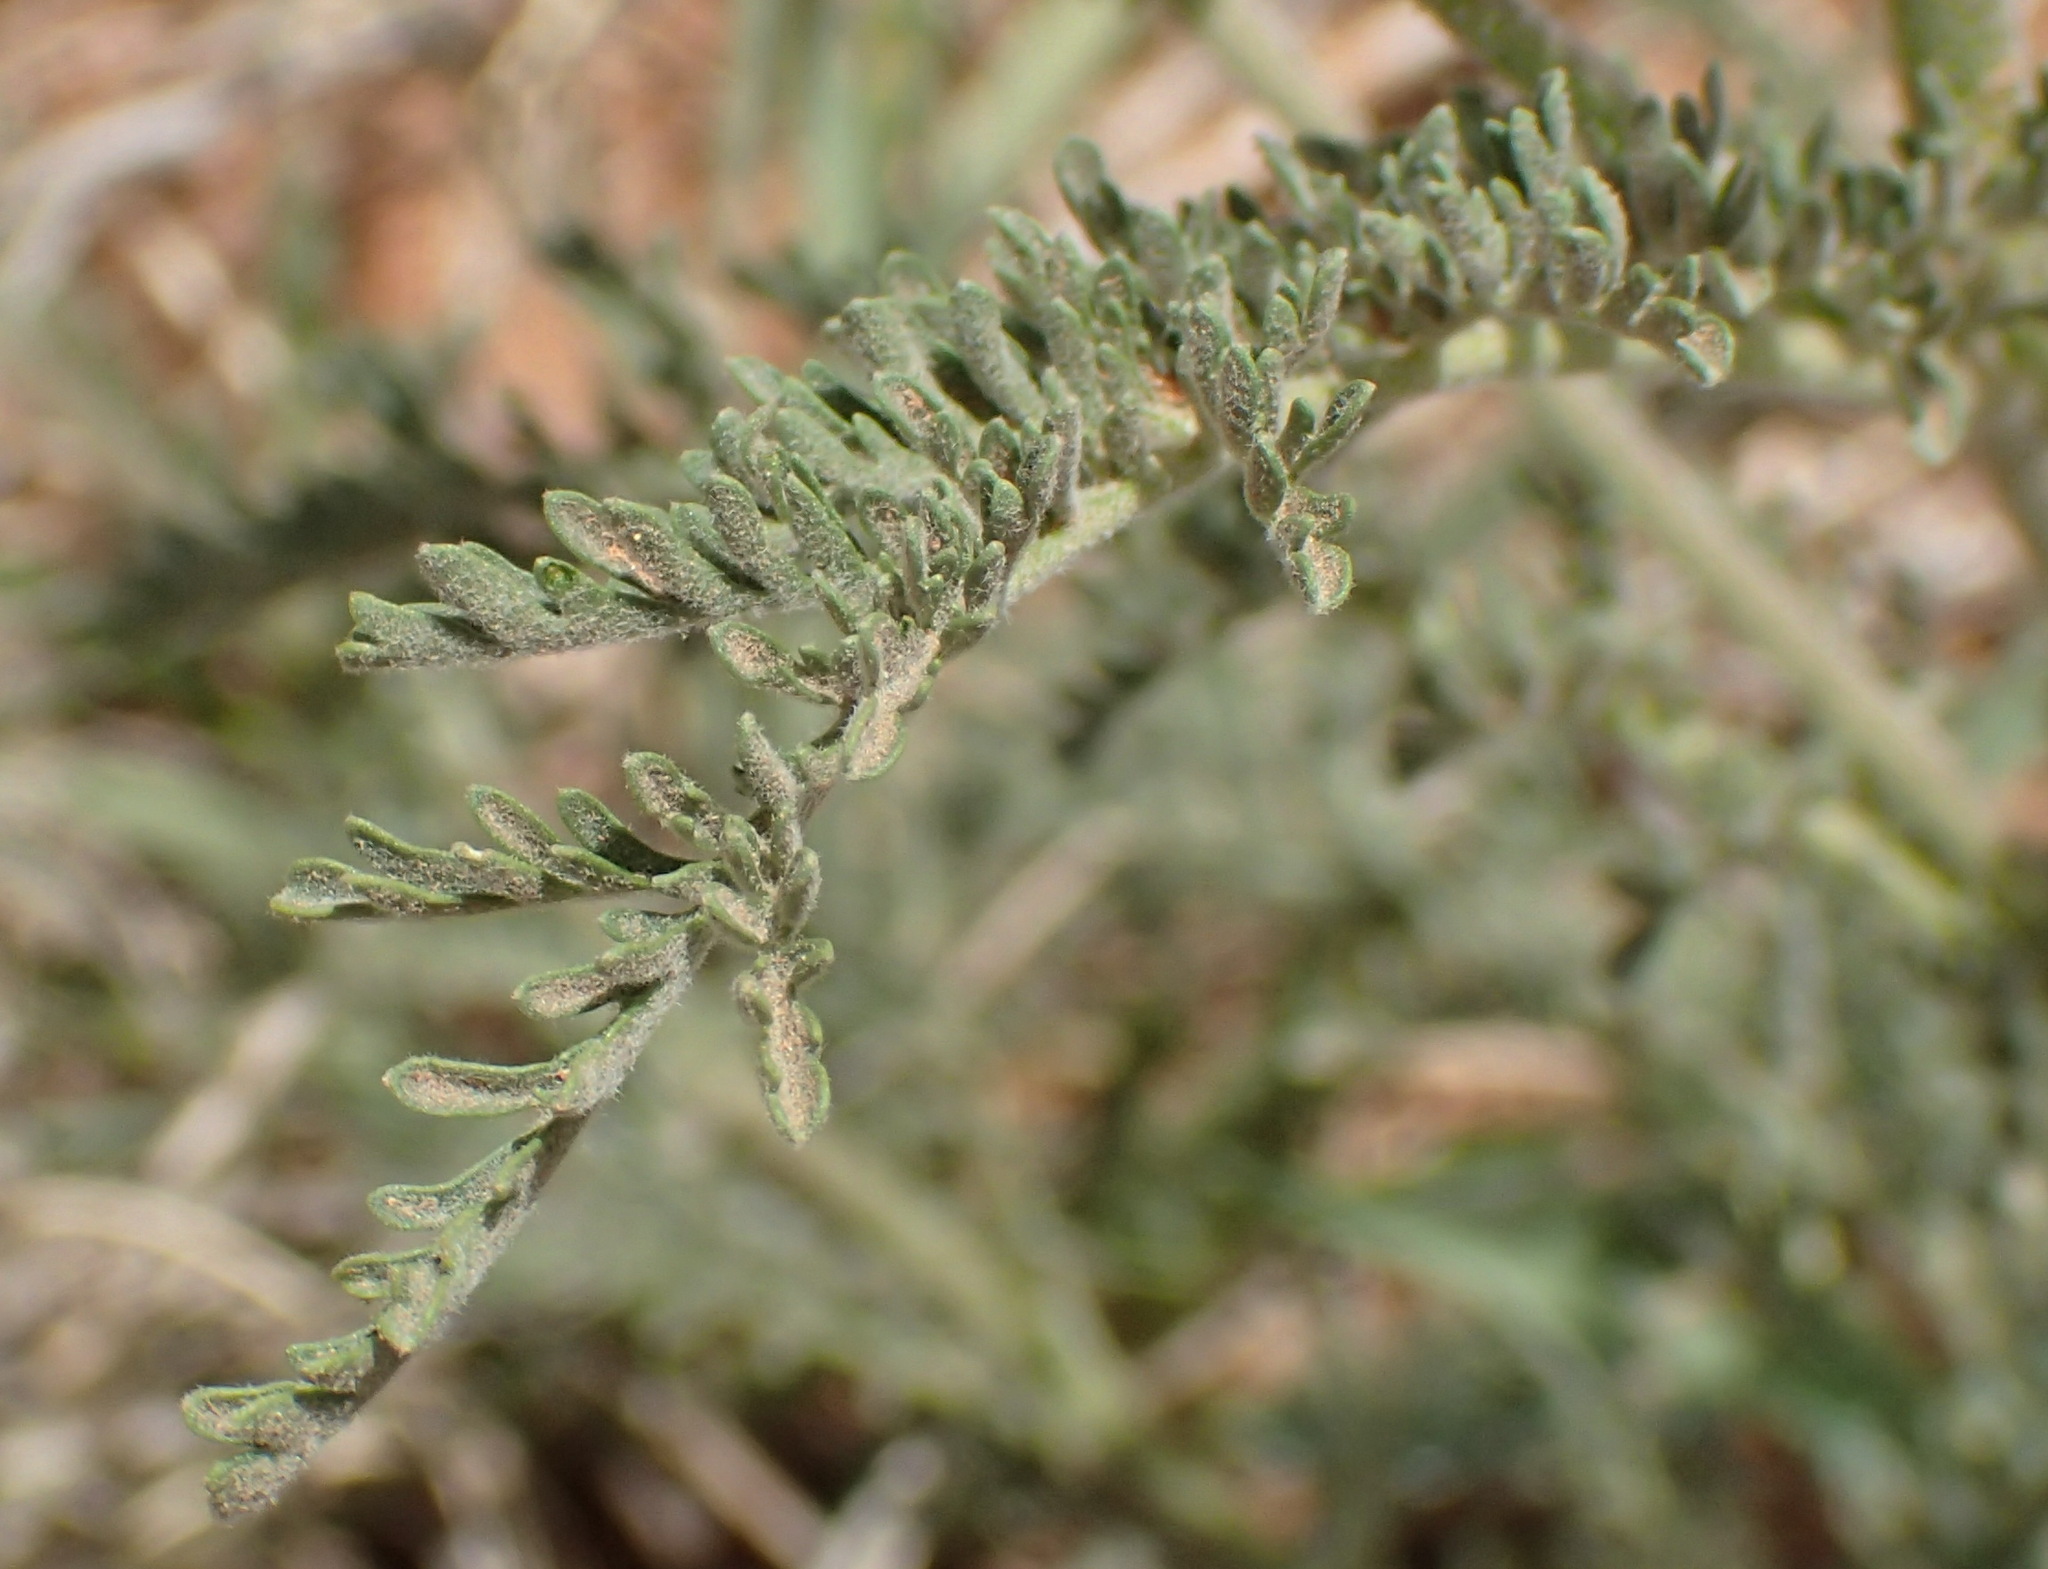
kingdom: Plantae
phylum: Tracheophyta
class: Magnoliopsida
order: Brassicales
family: Brassicaceae
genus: Descurainia
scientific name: Descurainia pinnata
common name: Western tansy mustard
